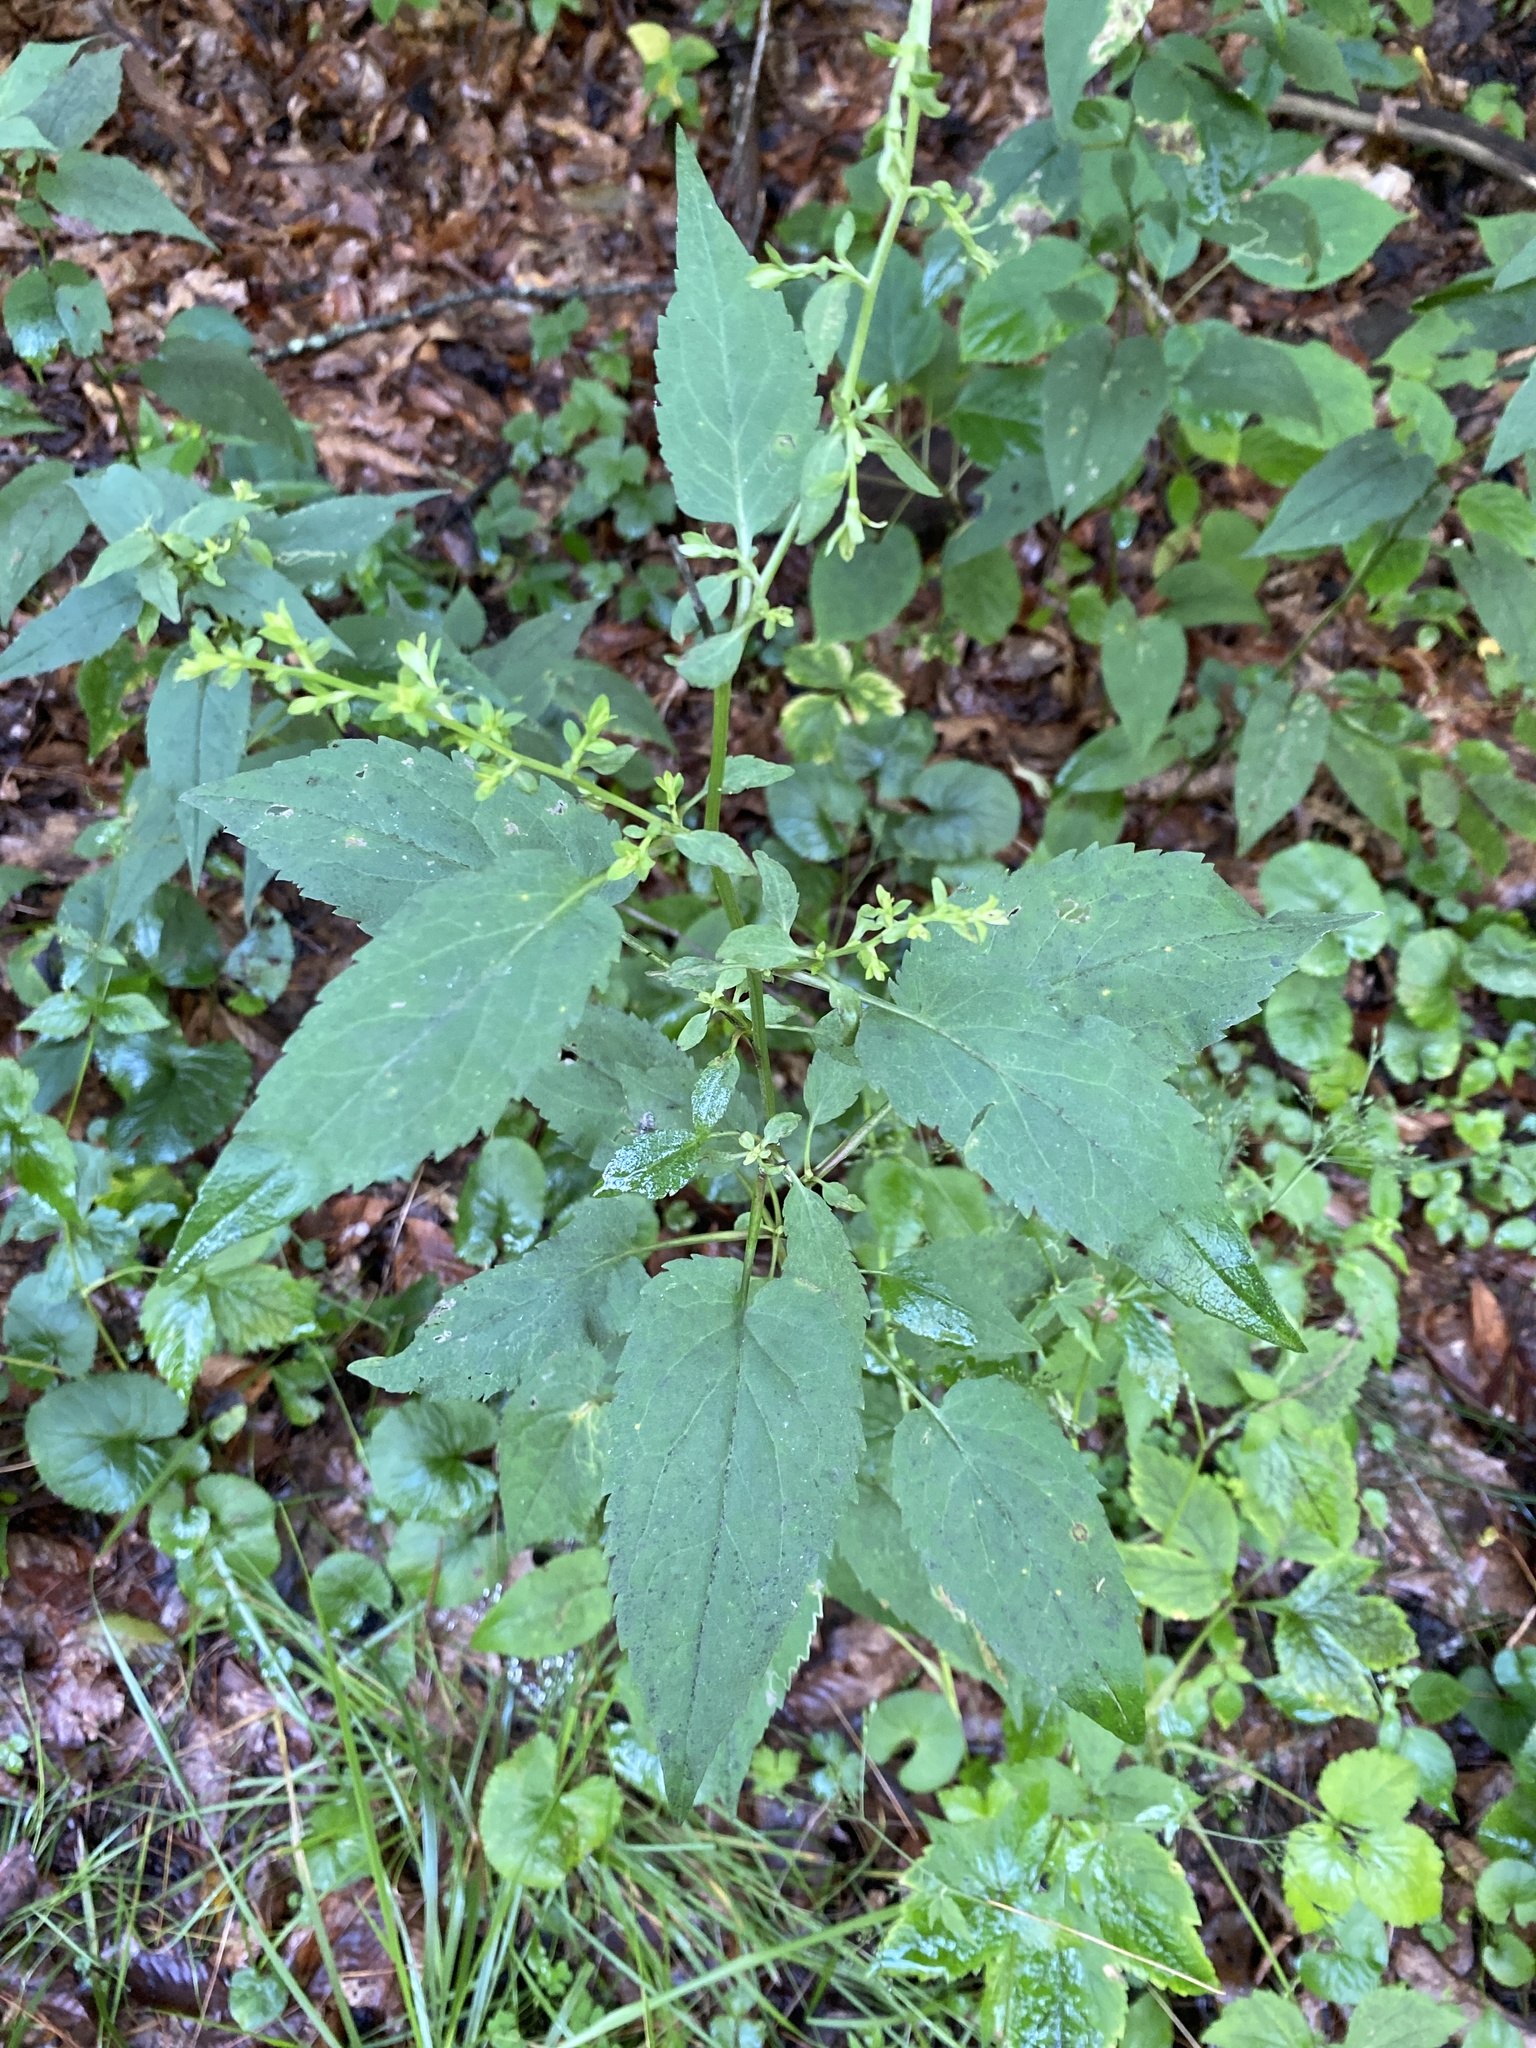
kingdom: Plantae
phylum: Tracheophyta
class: Magnoliopsida
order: Asterales
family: Asteraceae
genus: Symphyotrichum
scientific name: Symphyotrichum cordifolium
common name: Beeweed
